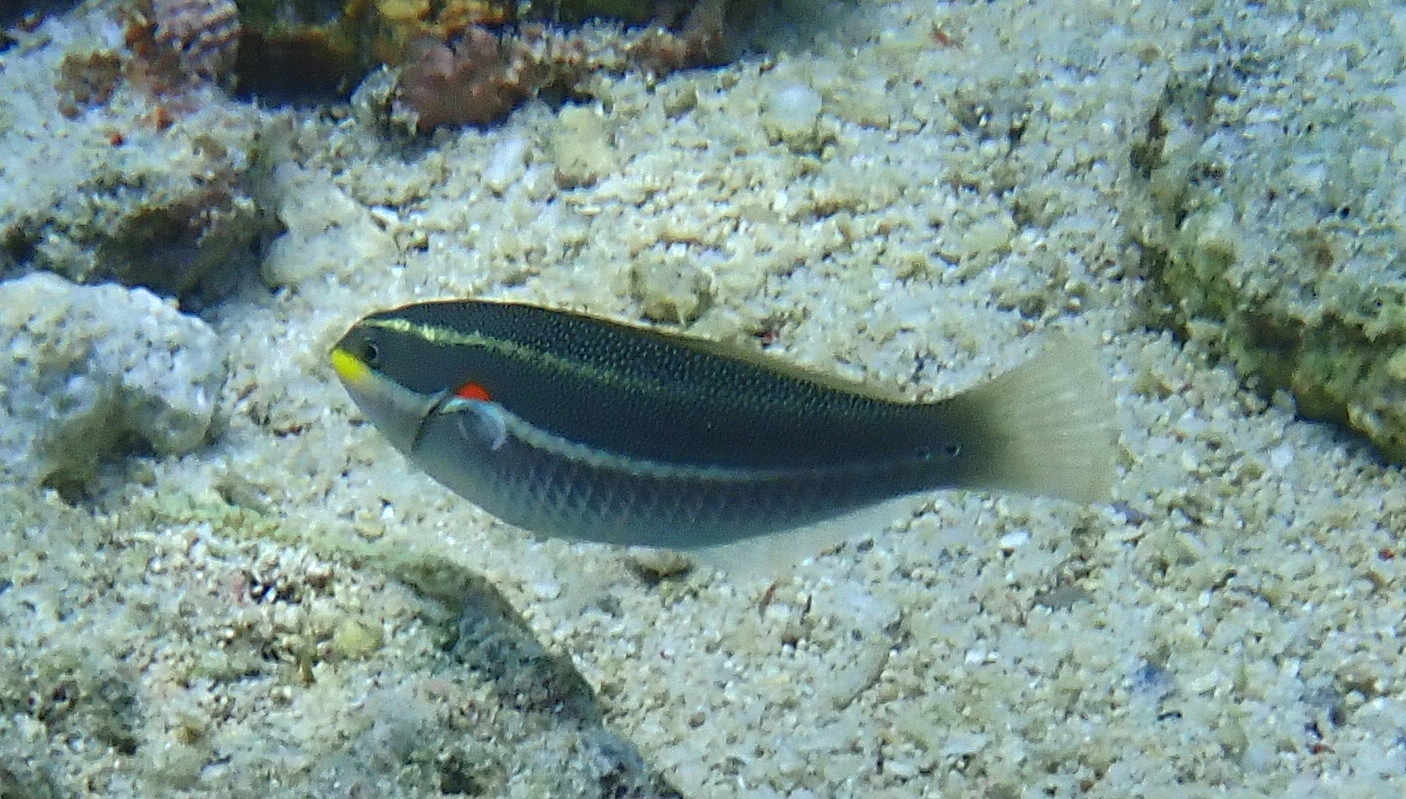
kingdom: Animalia
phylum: Chordata
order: Perciformes
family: Labridae
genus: Stethojulis
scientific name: Stethojulis bandanensis
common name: Red shoulder wrasse
